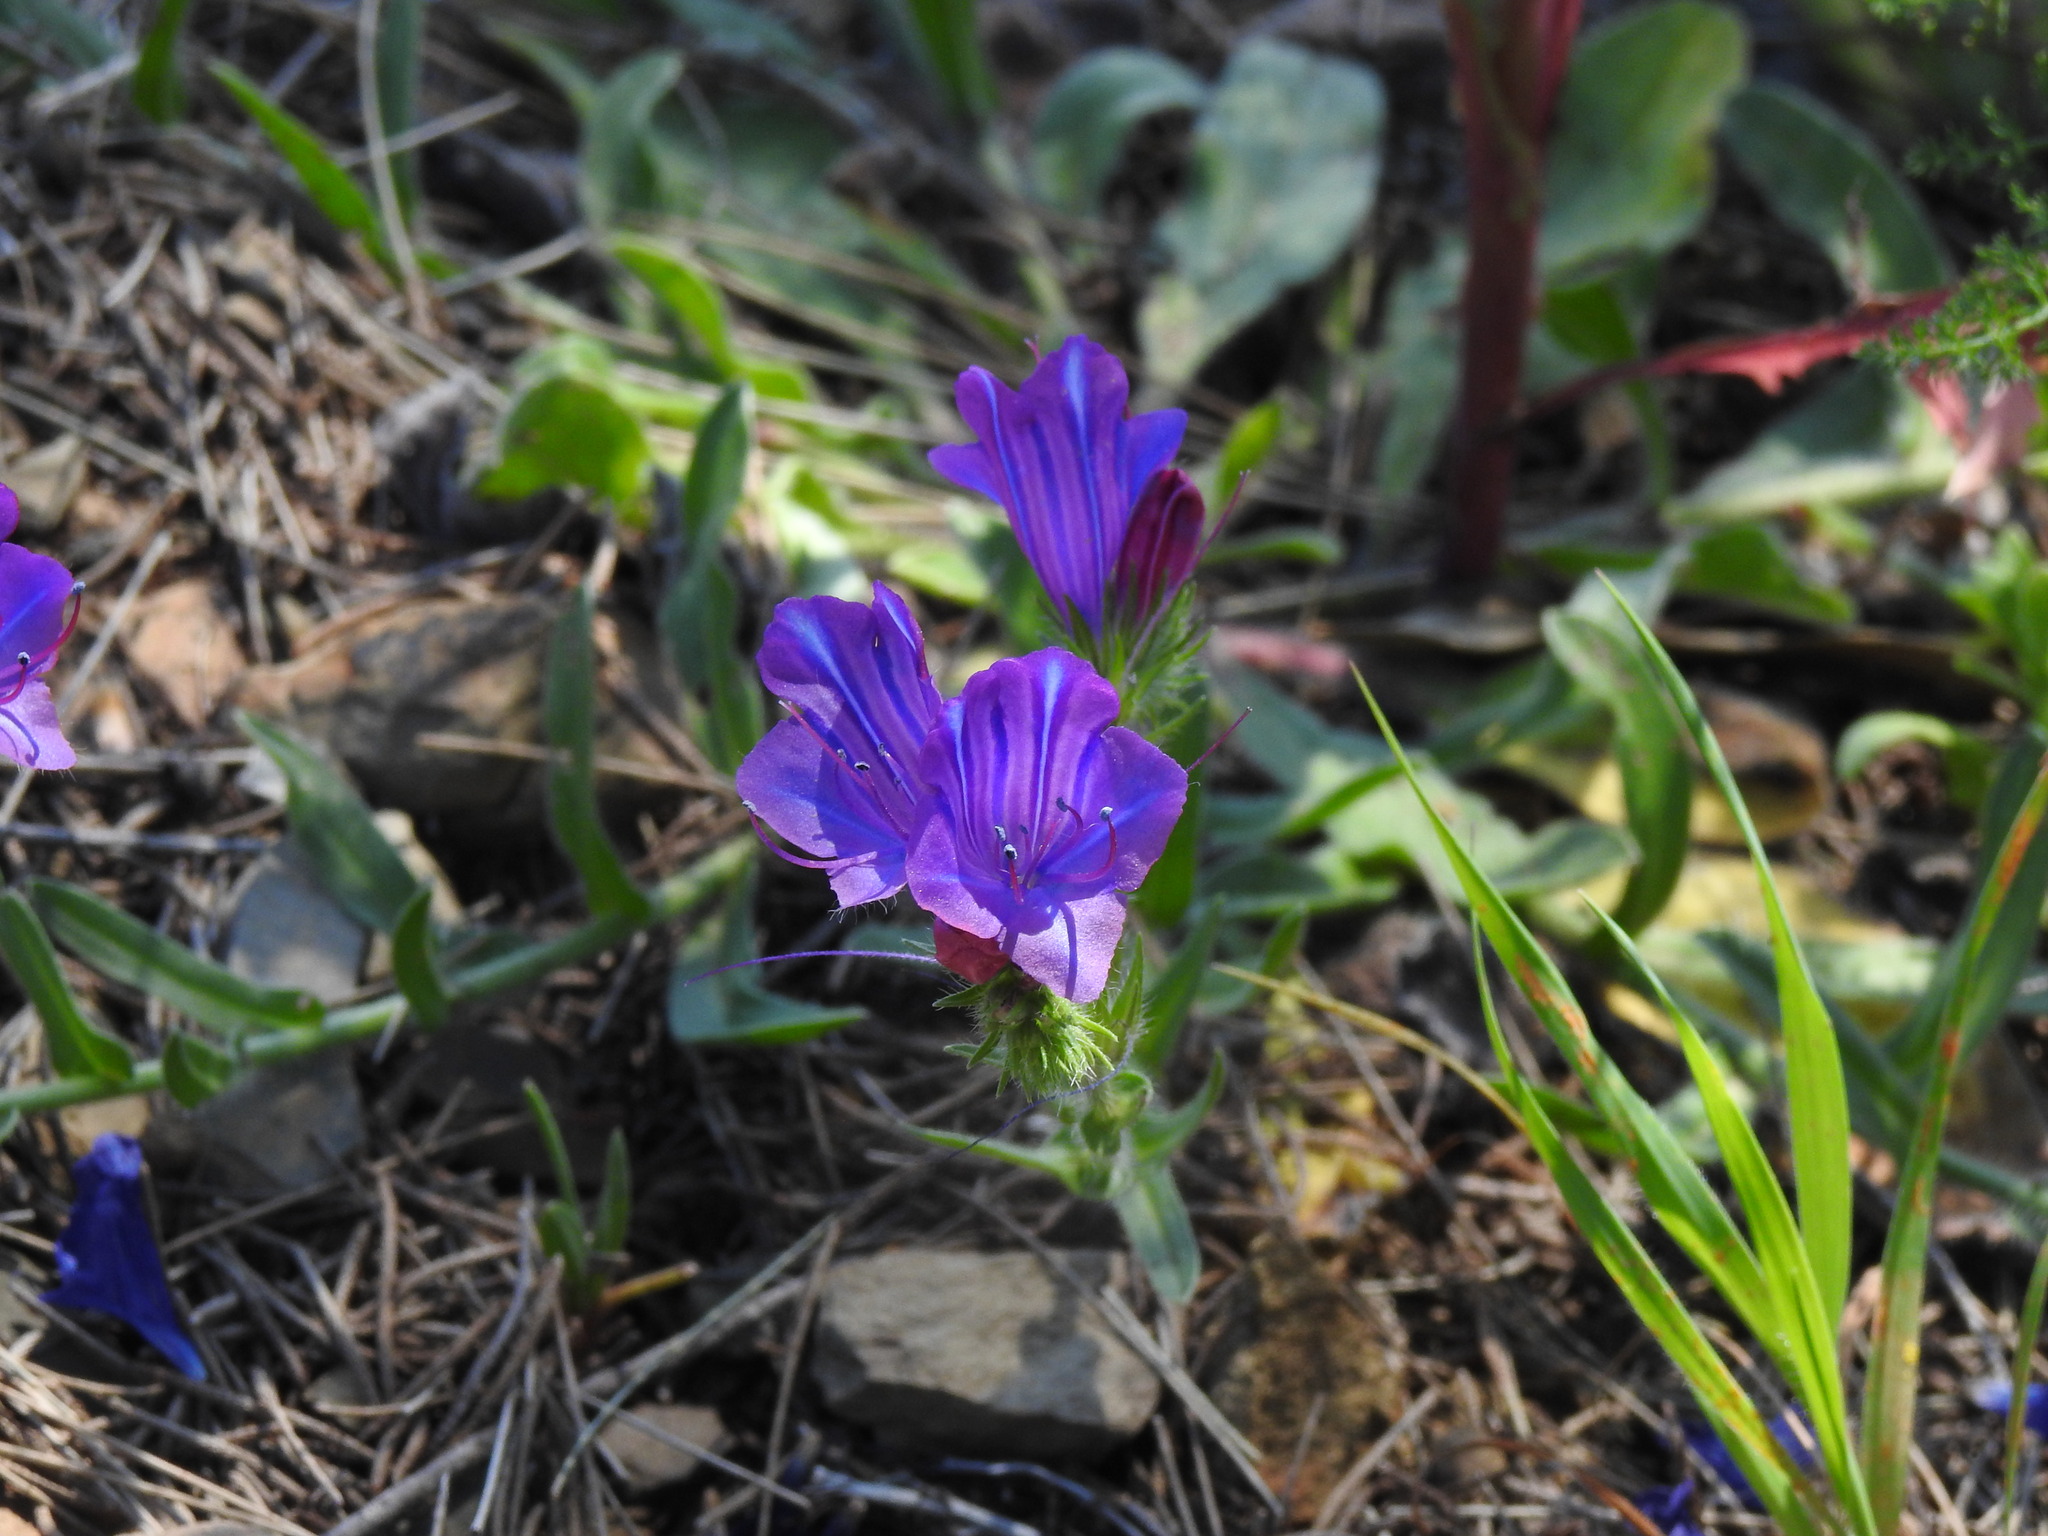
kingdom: Plantae
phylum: Tracheophyta
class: Magnoliopsida
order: Boraginales
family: Boraginaceae
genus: Echium
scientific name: Echium plantagineum
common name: Purple viper's-bugloss
